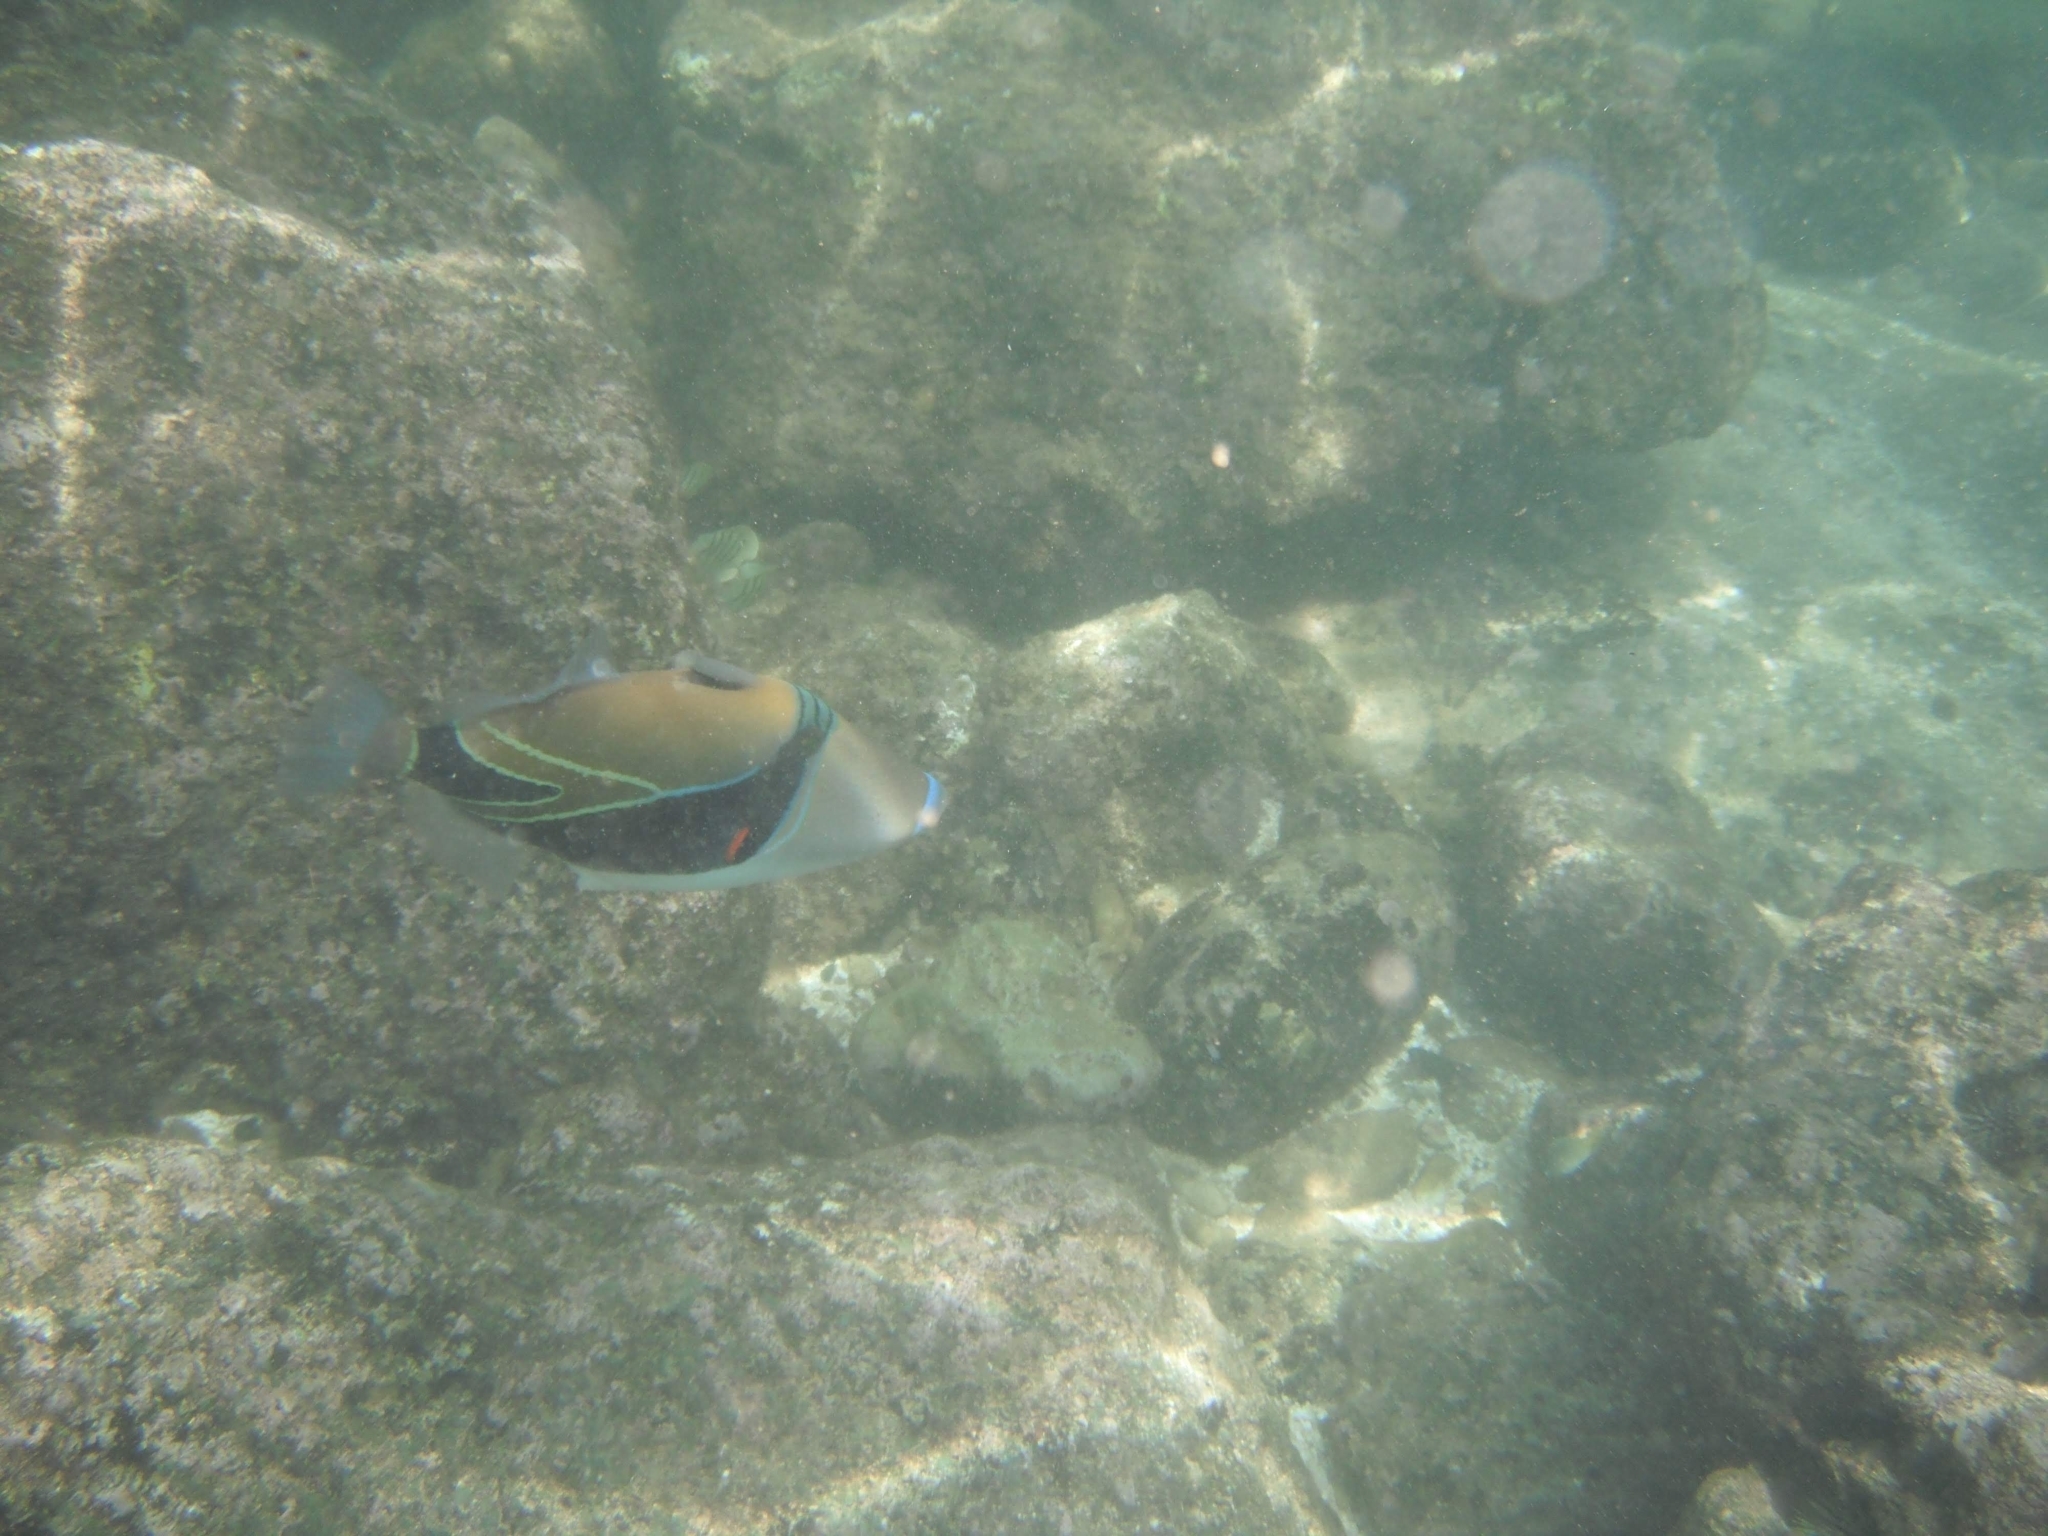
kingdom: Animalia
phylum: Chordata
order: Tetraodontiformes
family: Balistidae
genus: Rhinecanthus
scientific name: Rhinecanthus rectangulus
